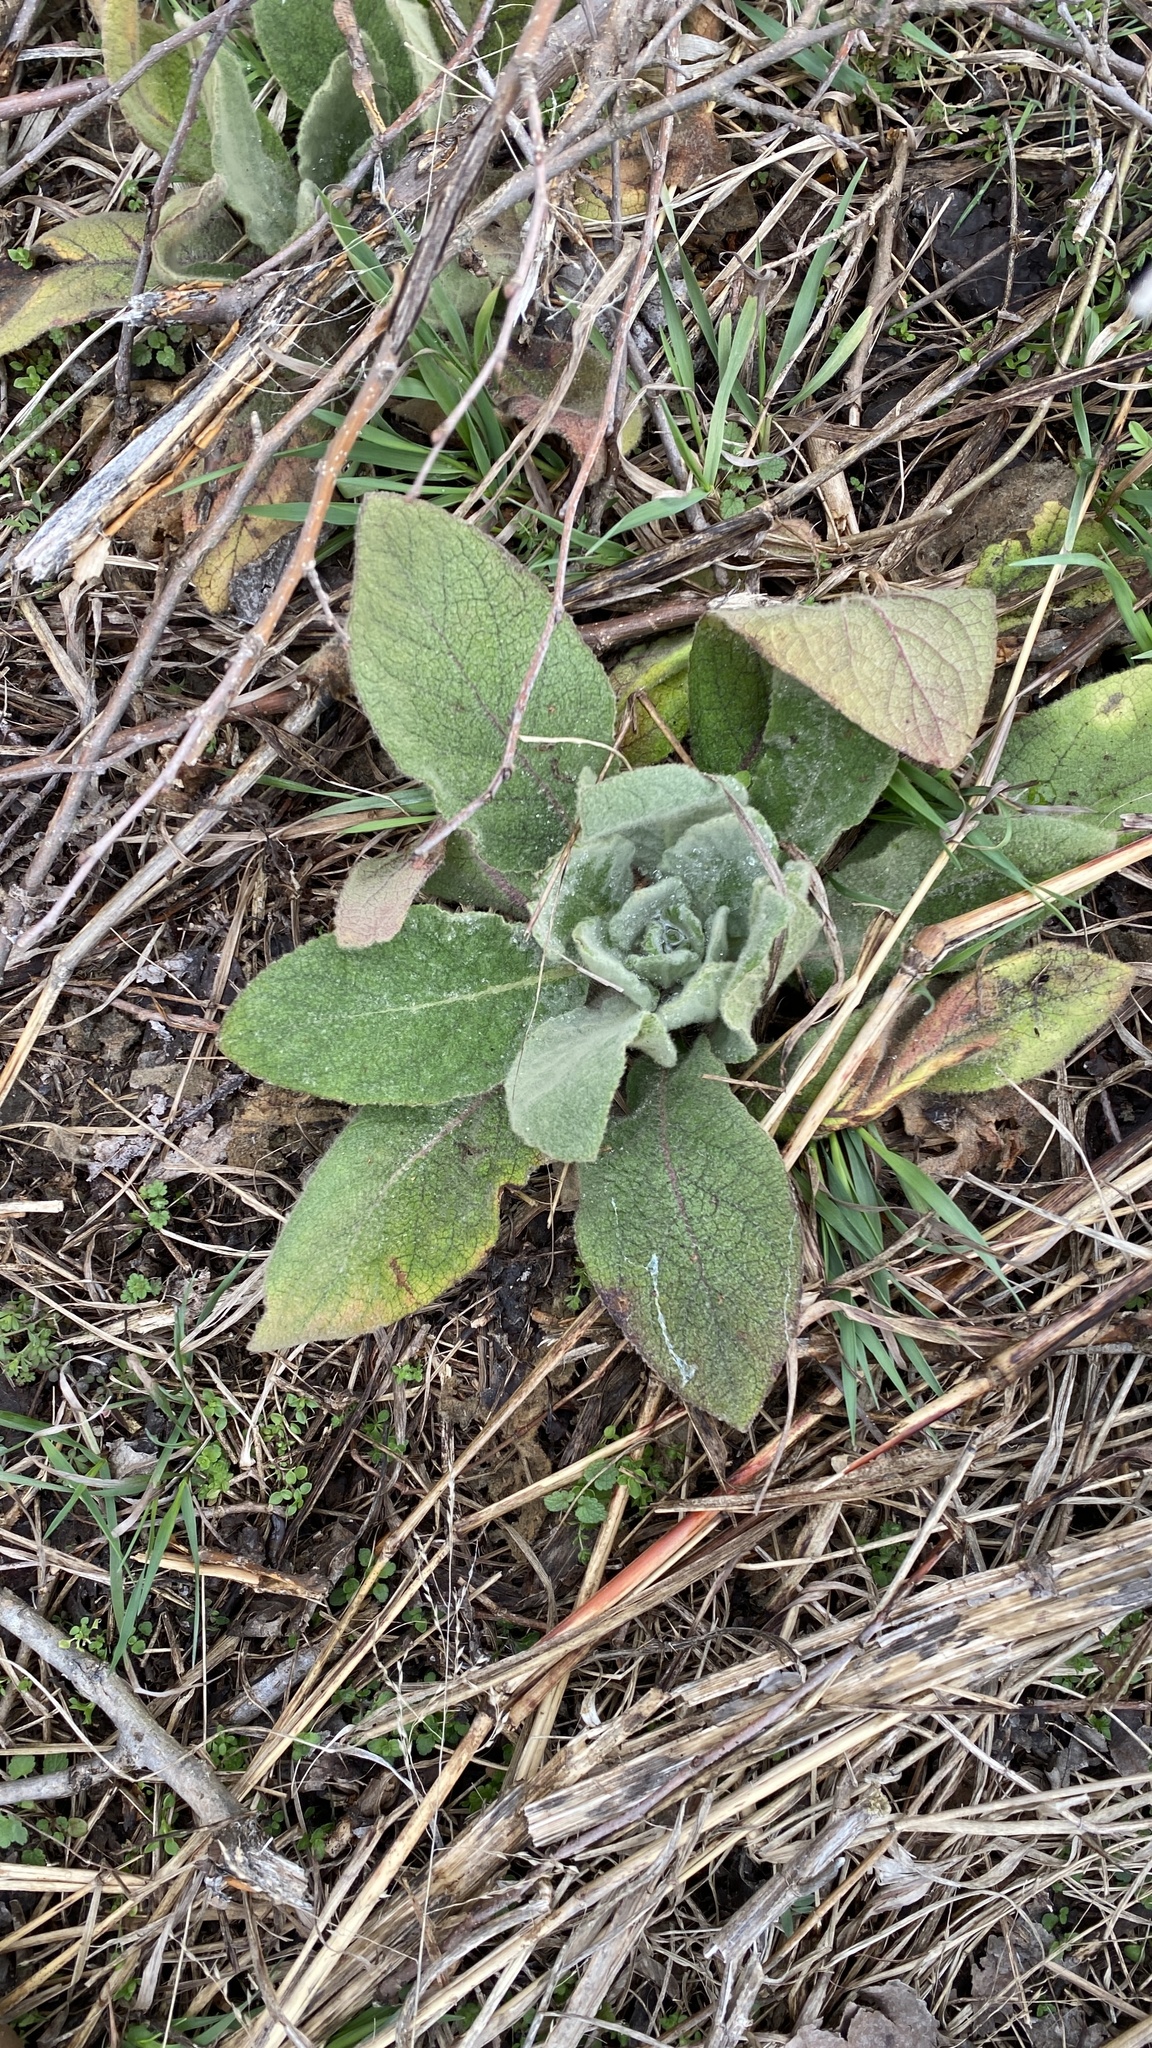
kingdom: Plantae
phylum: Tracheophyta
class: Magnoliopsida
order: Lamiales
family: Scrophulariaceae
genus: Verbascum
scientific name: Verbascum thapsus
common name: Common mullein
